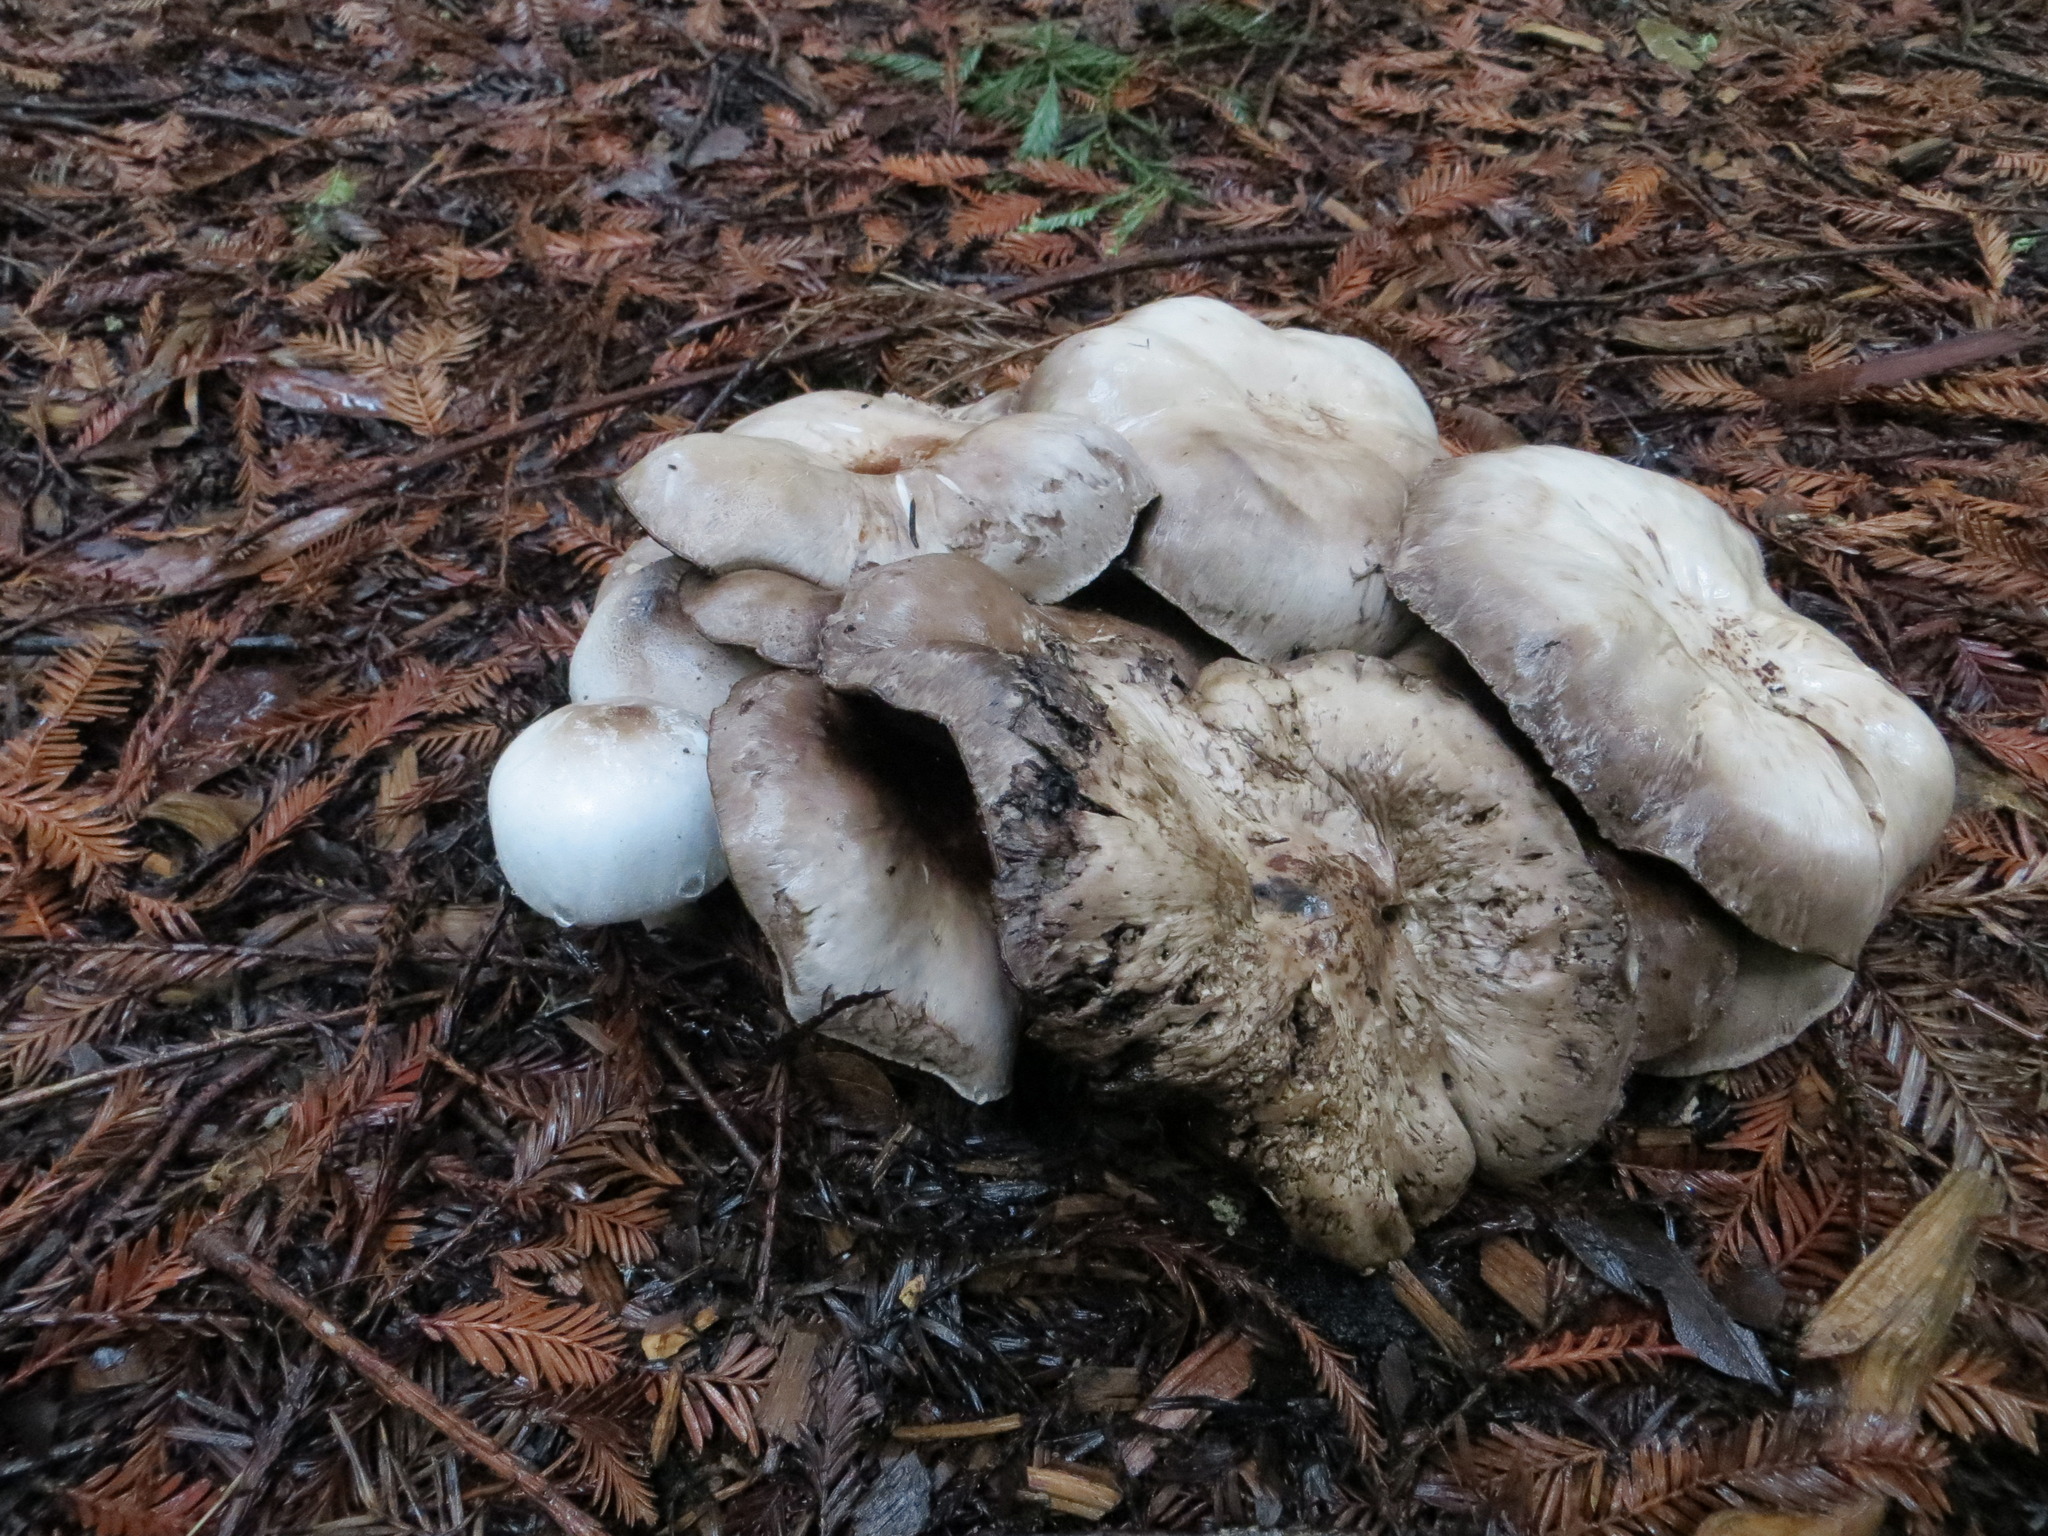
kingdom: Fungi
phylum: Basidiomycota
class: Agaricomycetes
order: Agaricales
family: Agaricaceae
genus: Agaricus
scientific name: Agaricus xanthodermus
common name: Yellow stainer
